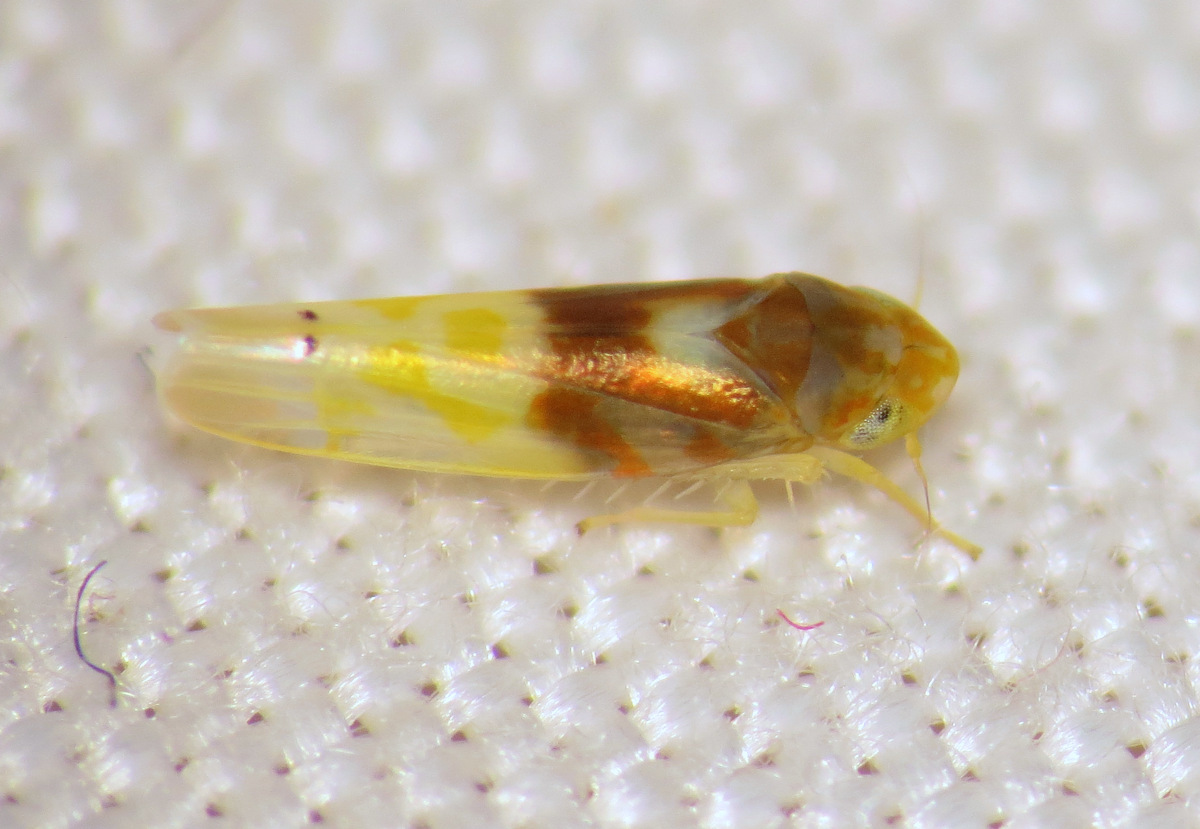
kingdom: Animalia
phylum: Arthropoda
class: Insecta
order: Hemiptera
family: Cicadellidae
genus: Eratoneura
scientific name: Eratoneura affinis
